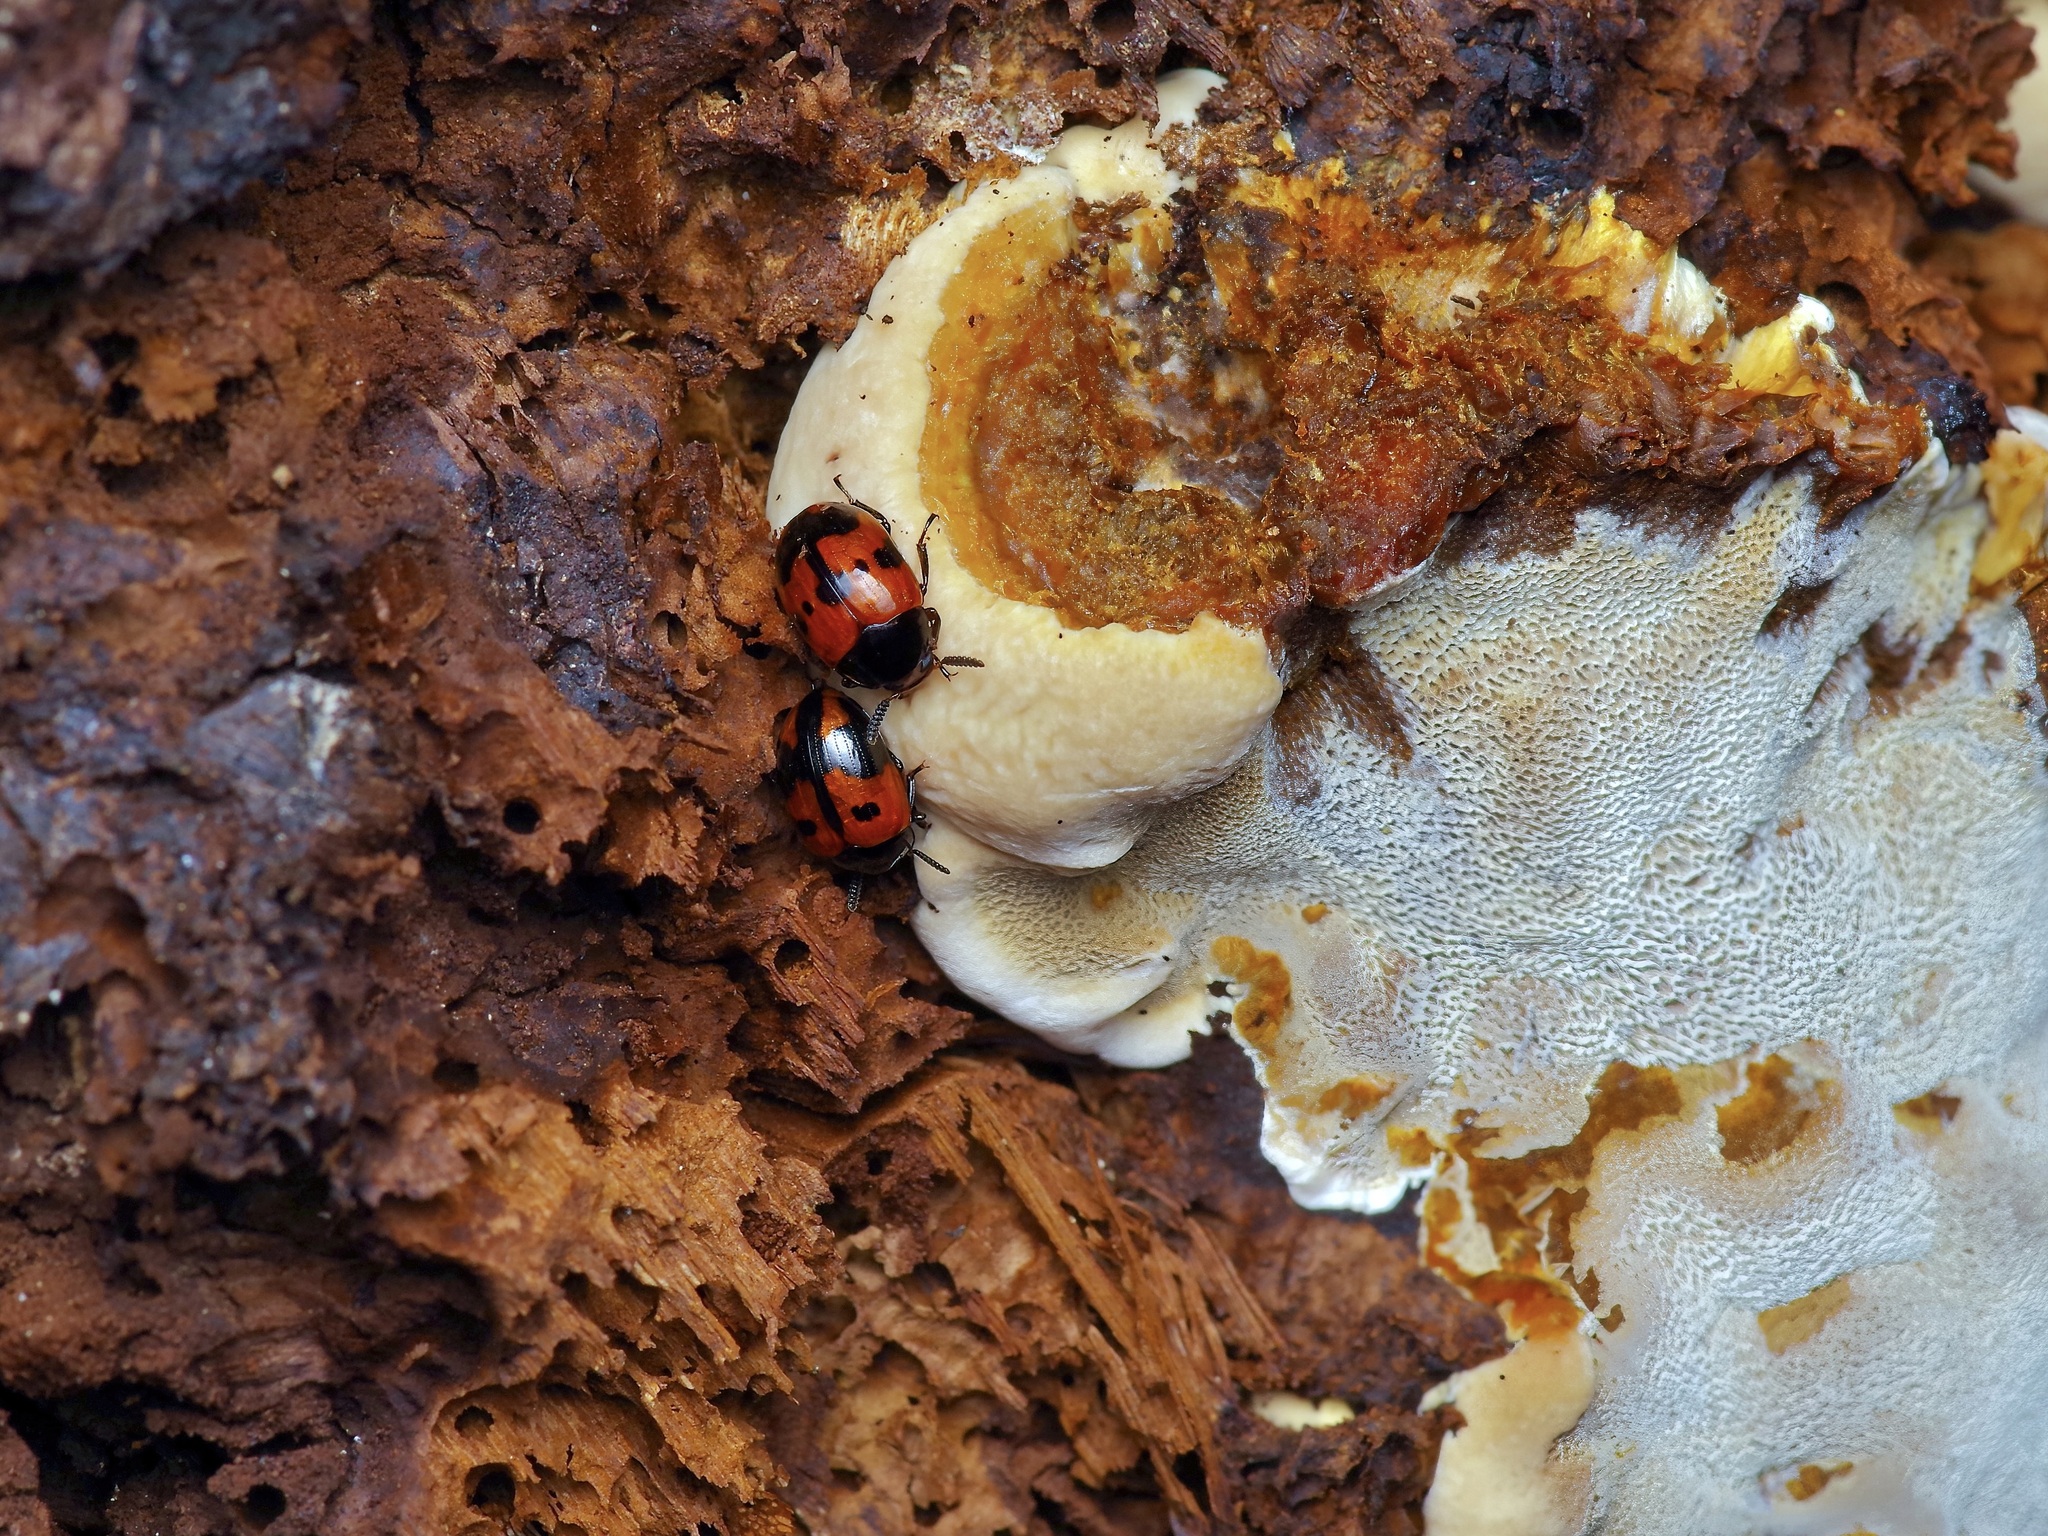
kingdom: Animalia
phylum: Arthropoda
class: Insecta
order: Coleoptera
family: Tenebrionidae
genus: Diaperis
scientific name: Diaperis nigronotata
